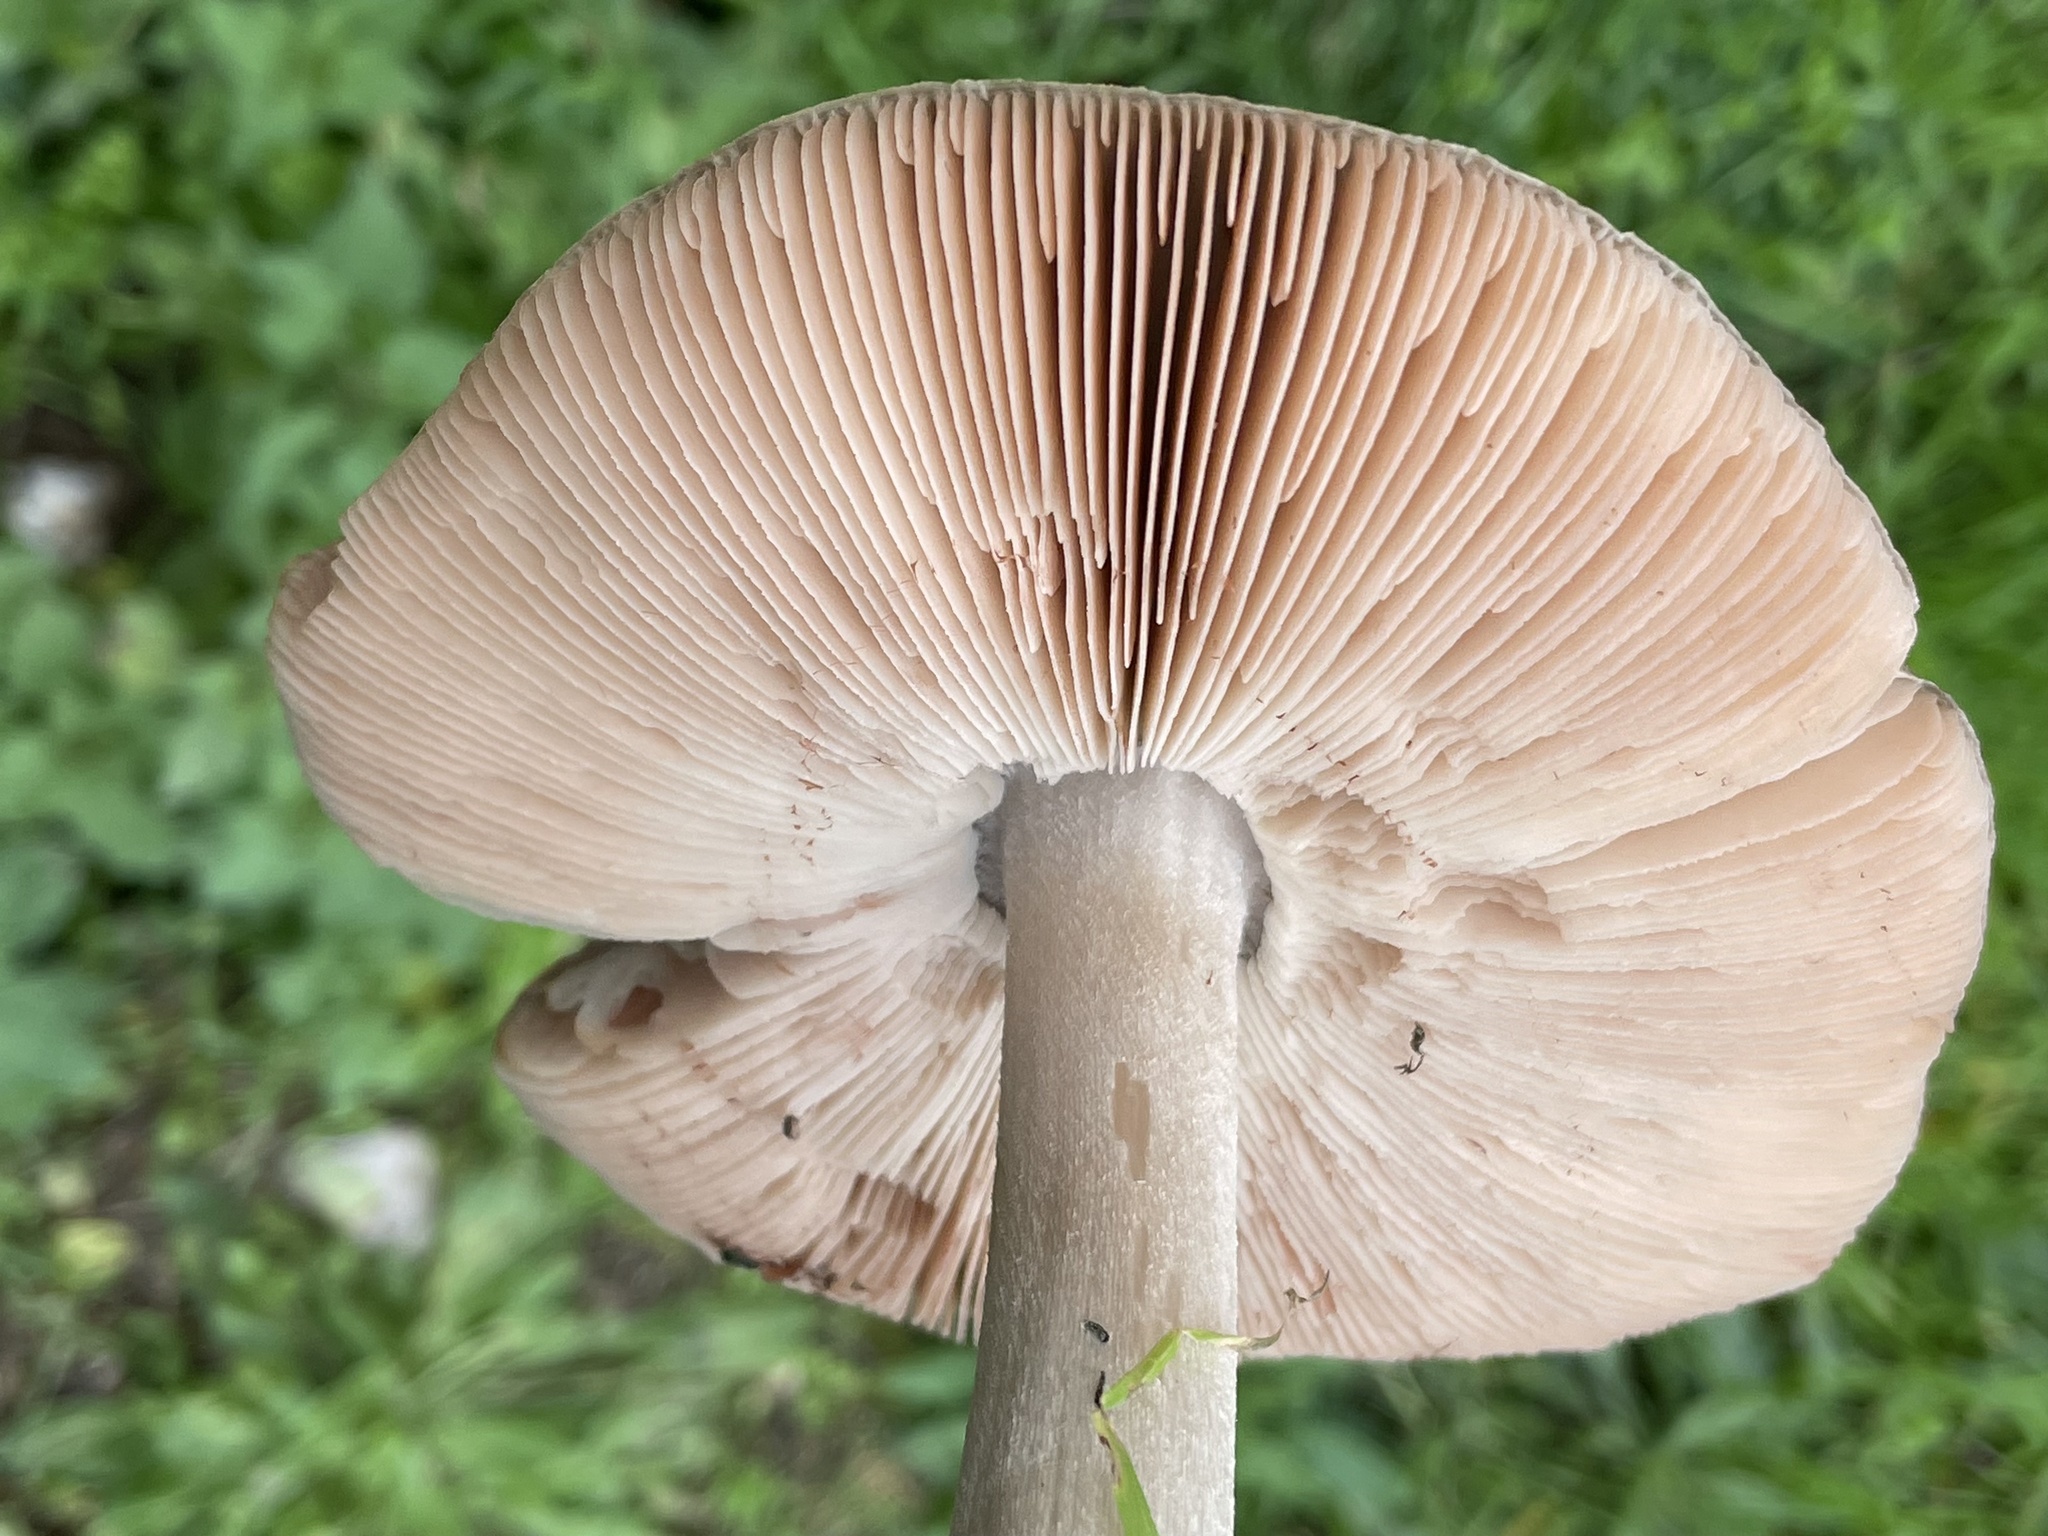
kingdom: Fungi
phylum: Basidiomycota
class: Agaricomycetes
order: Agaricales
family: Pluteaceae
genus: Volvopluteus
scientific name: Volvopluteus gloiocephalus
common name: Stubble rosegill
